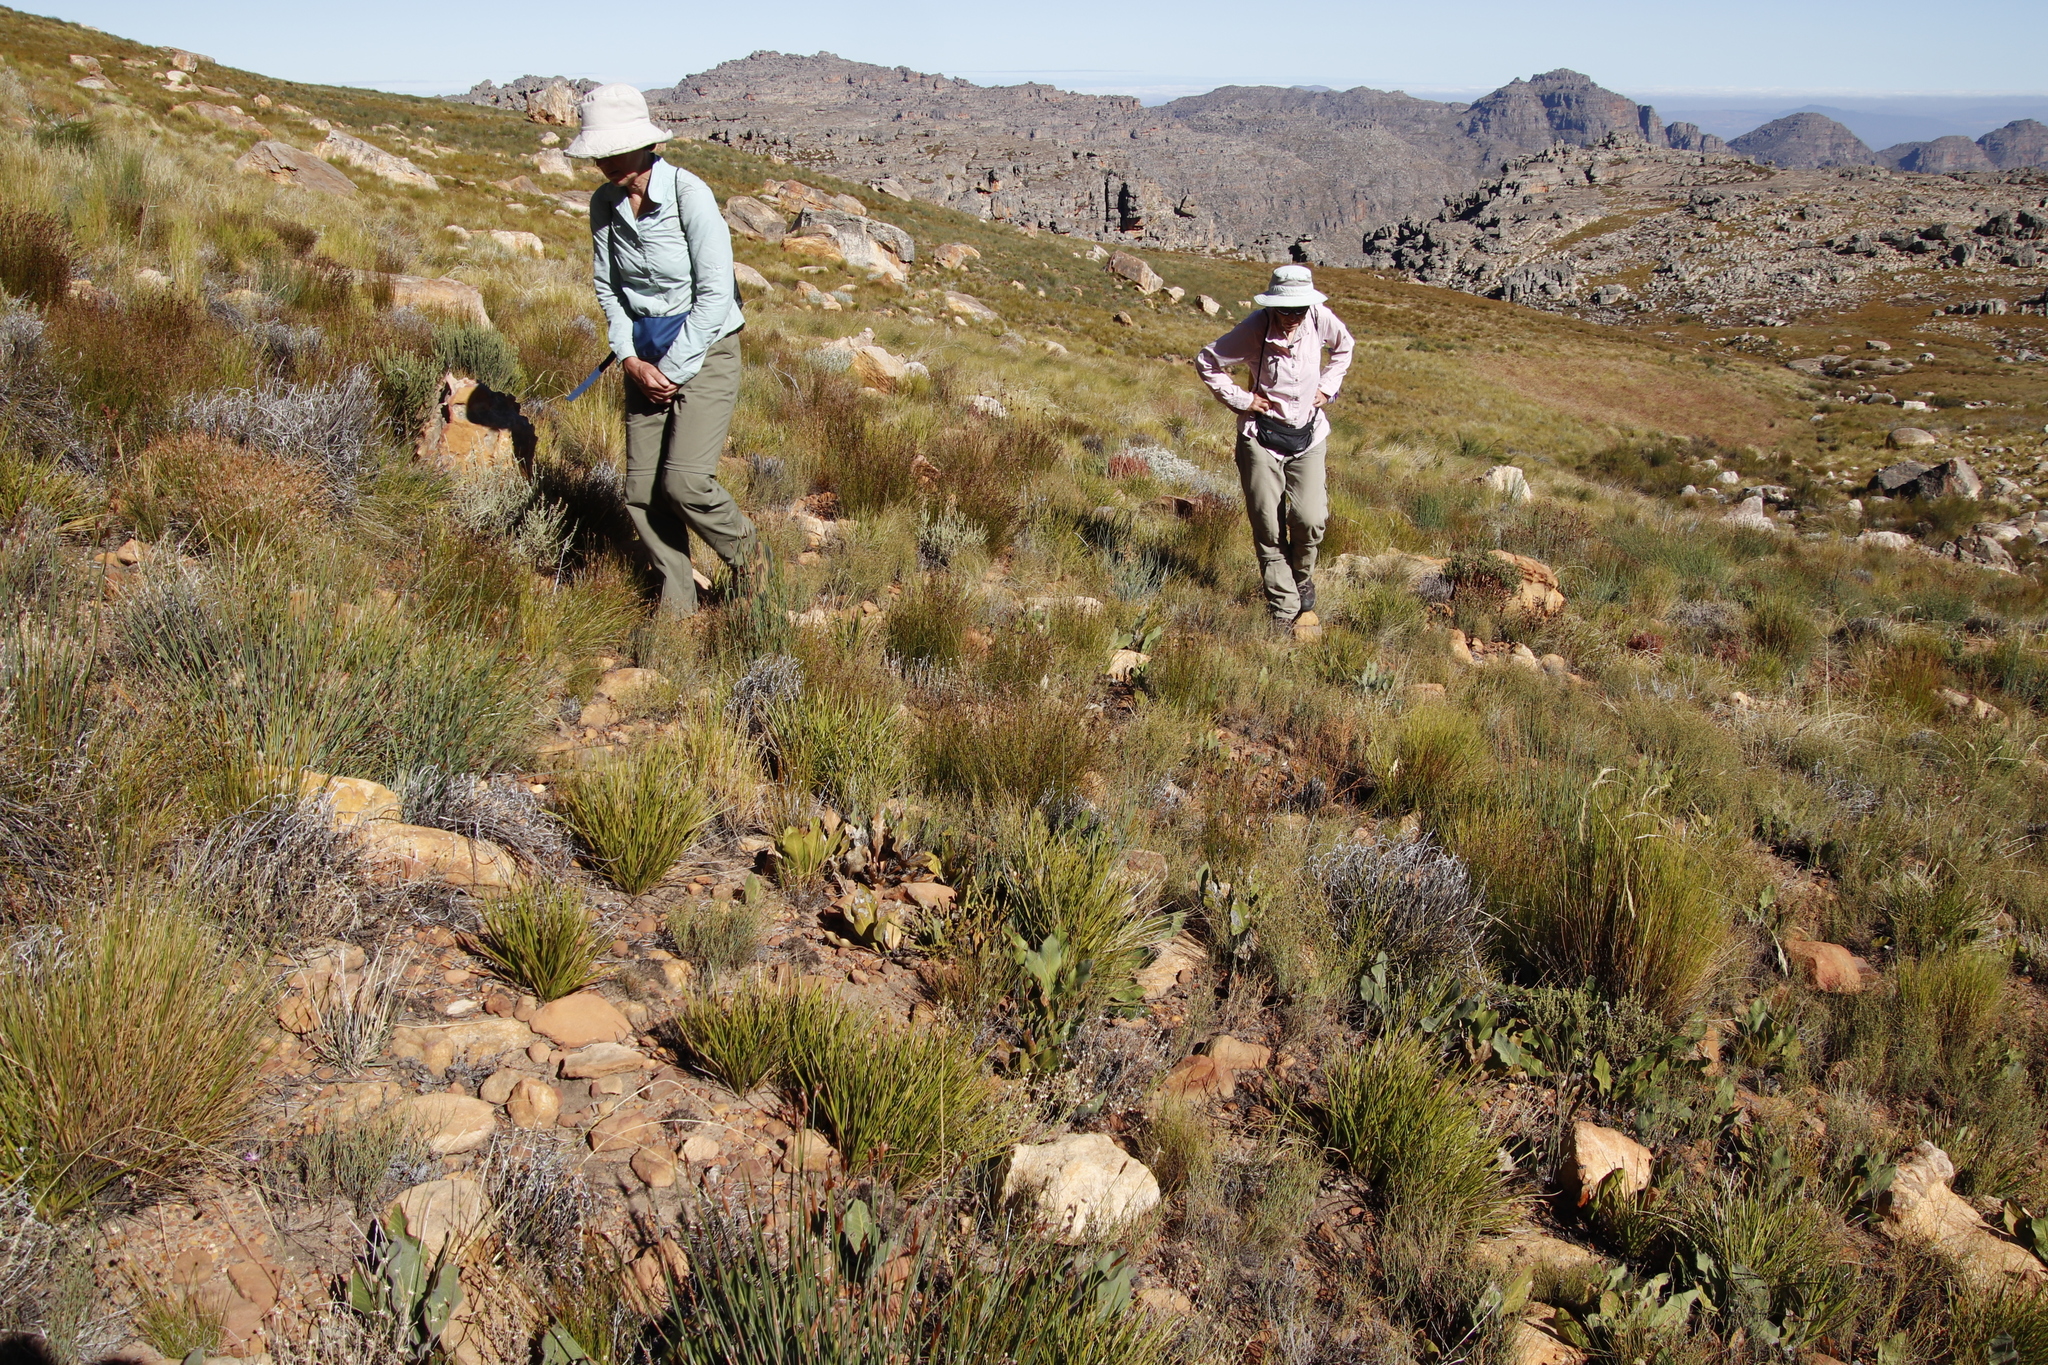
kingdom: Plantae
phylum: Tracheophyta
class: Magnoliopsida
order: Proteales
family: Proteaceae
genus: Protea
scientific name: Protea scolopendriifolia
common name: Harts-tongue-fern sugarbush
